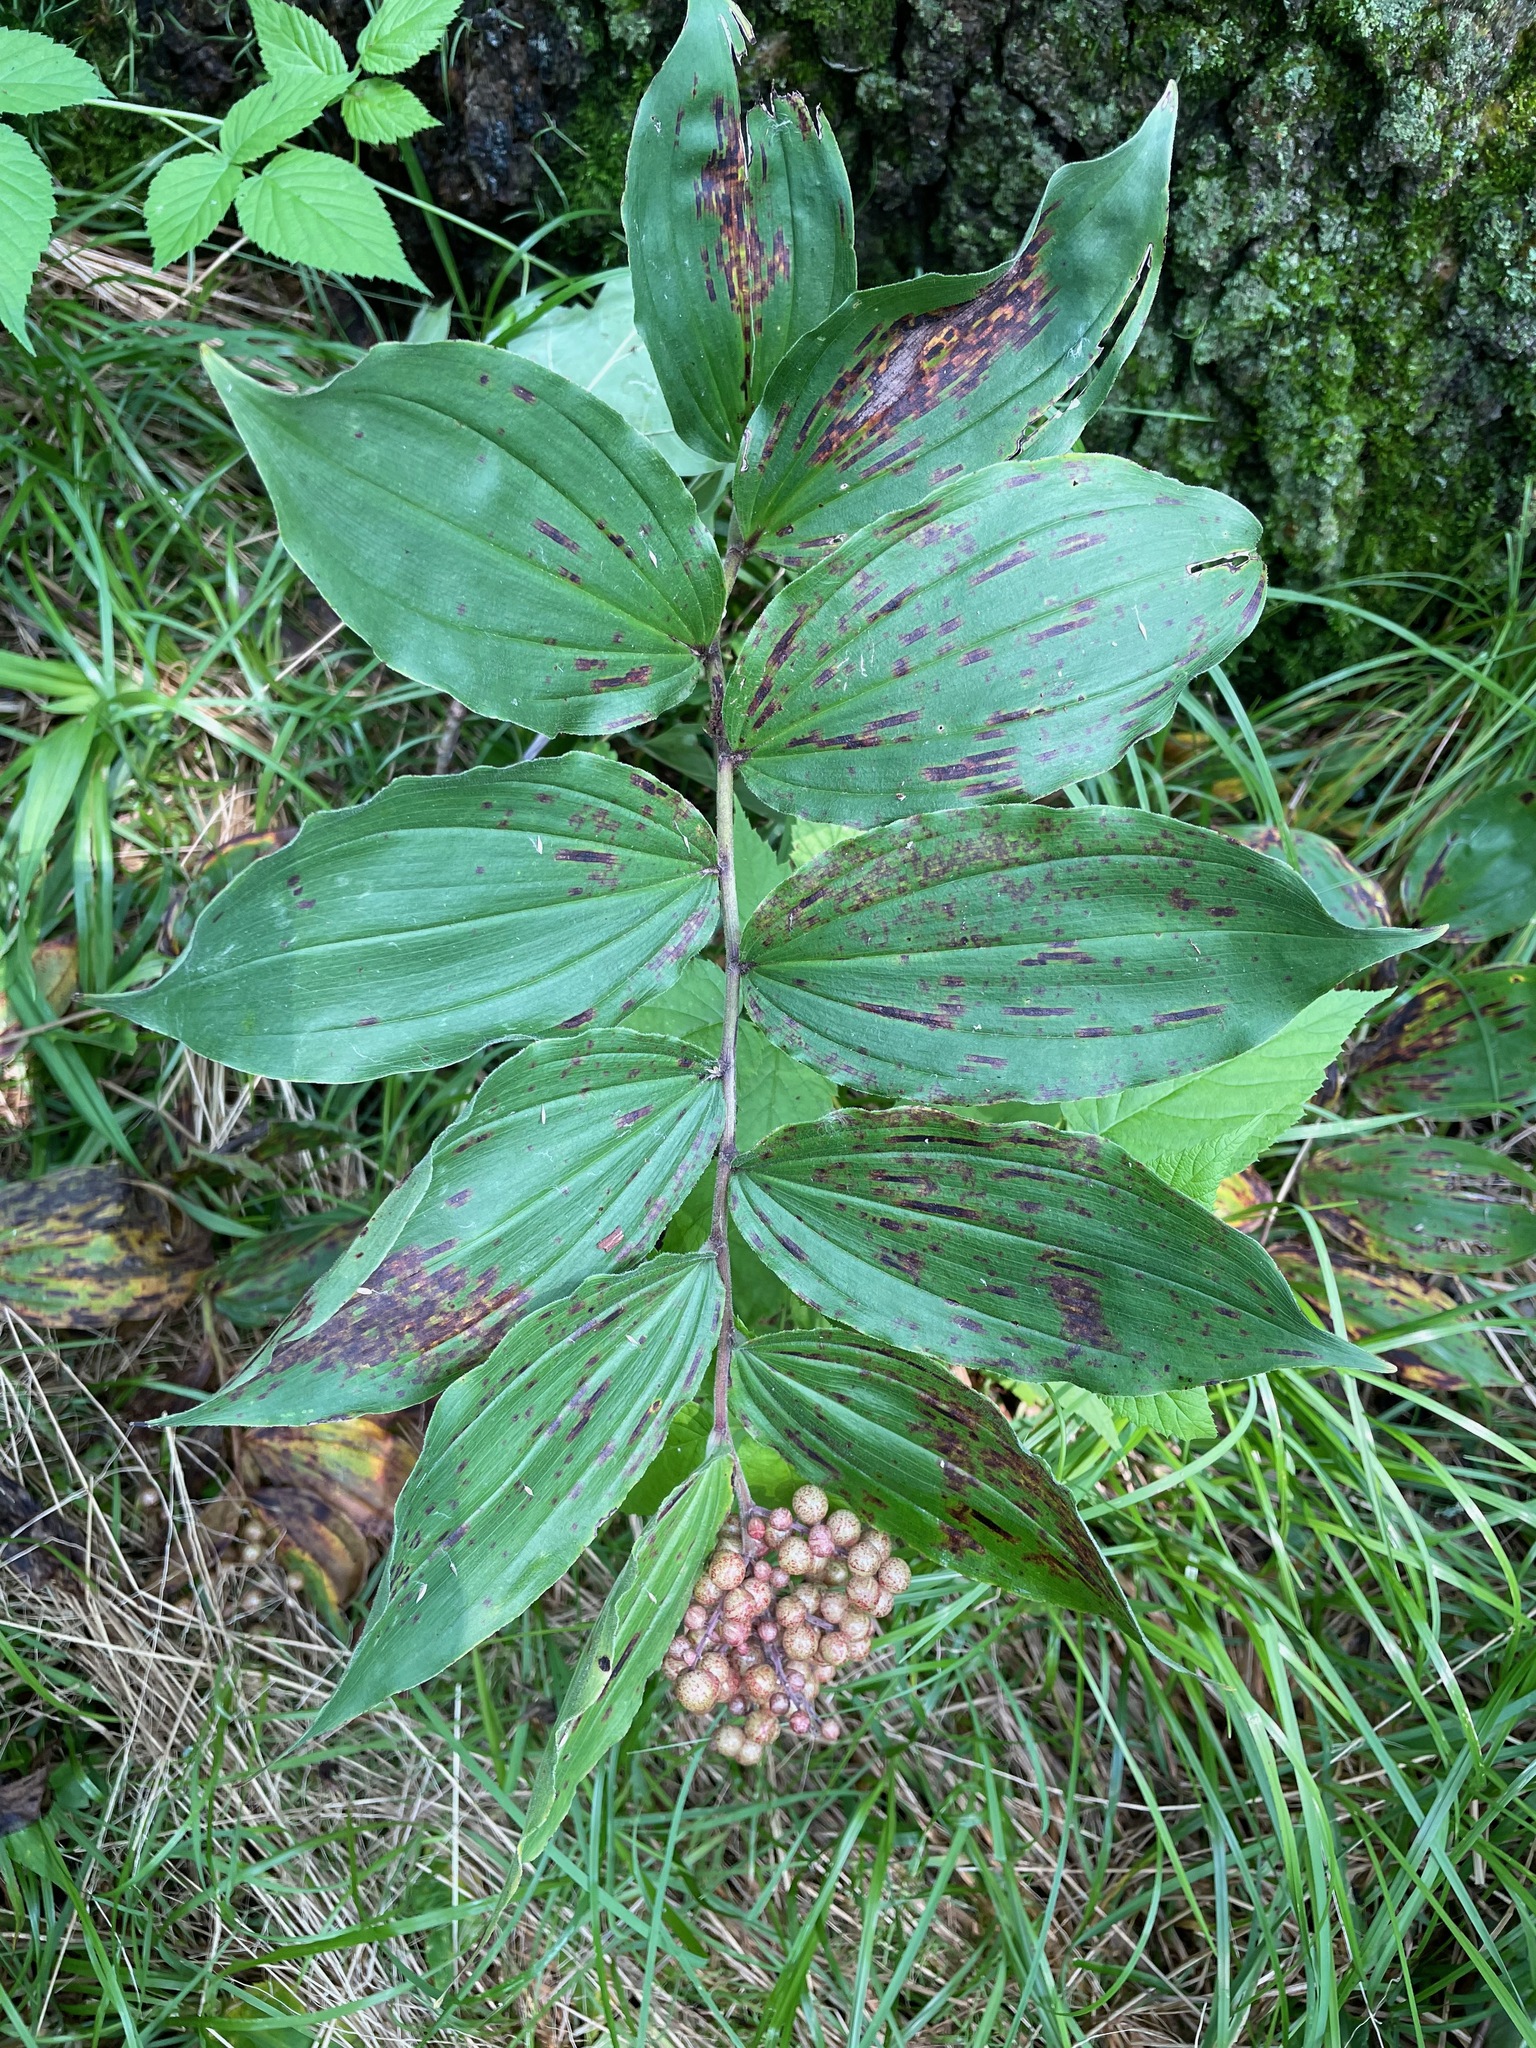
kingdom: Plantae
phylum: Tracheophyta
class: Liliopsida
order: Asparagales
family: Asparagaceae
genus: Maianthemum
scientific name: Maianthemum racemosum
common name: False spikenard
